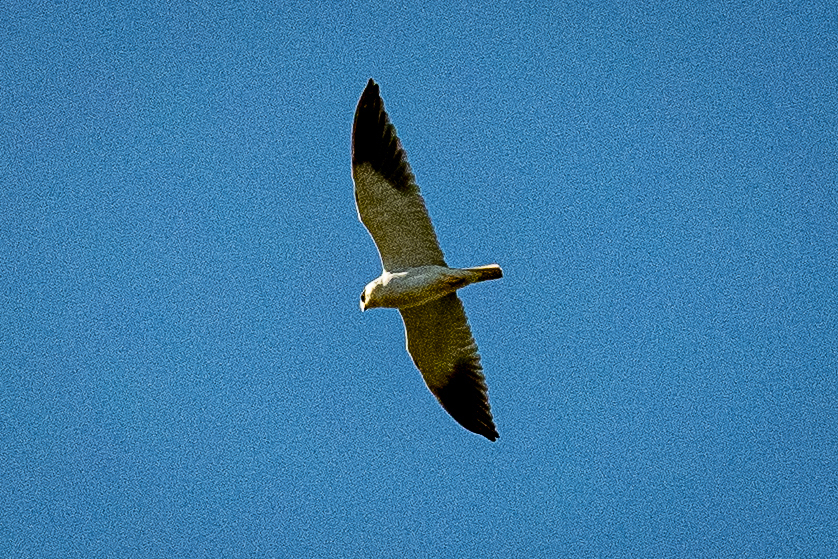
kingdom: Animalia
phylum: Chordata
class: Aves
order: Accipitriformes
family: Accipitridae
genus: Elanus
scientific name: Elanus caeruleus
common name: Black-winged kite
